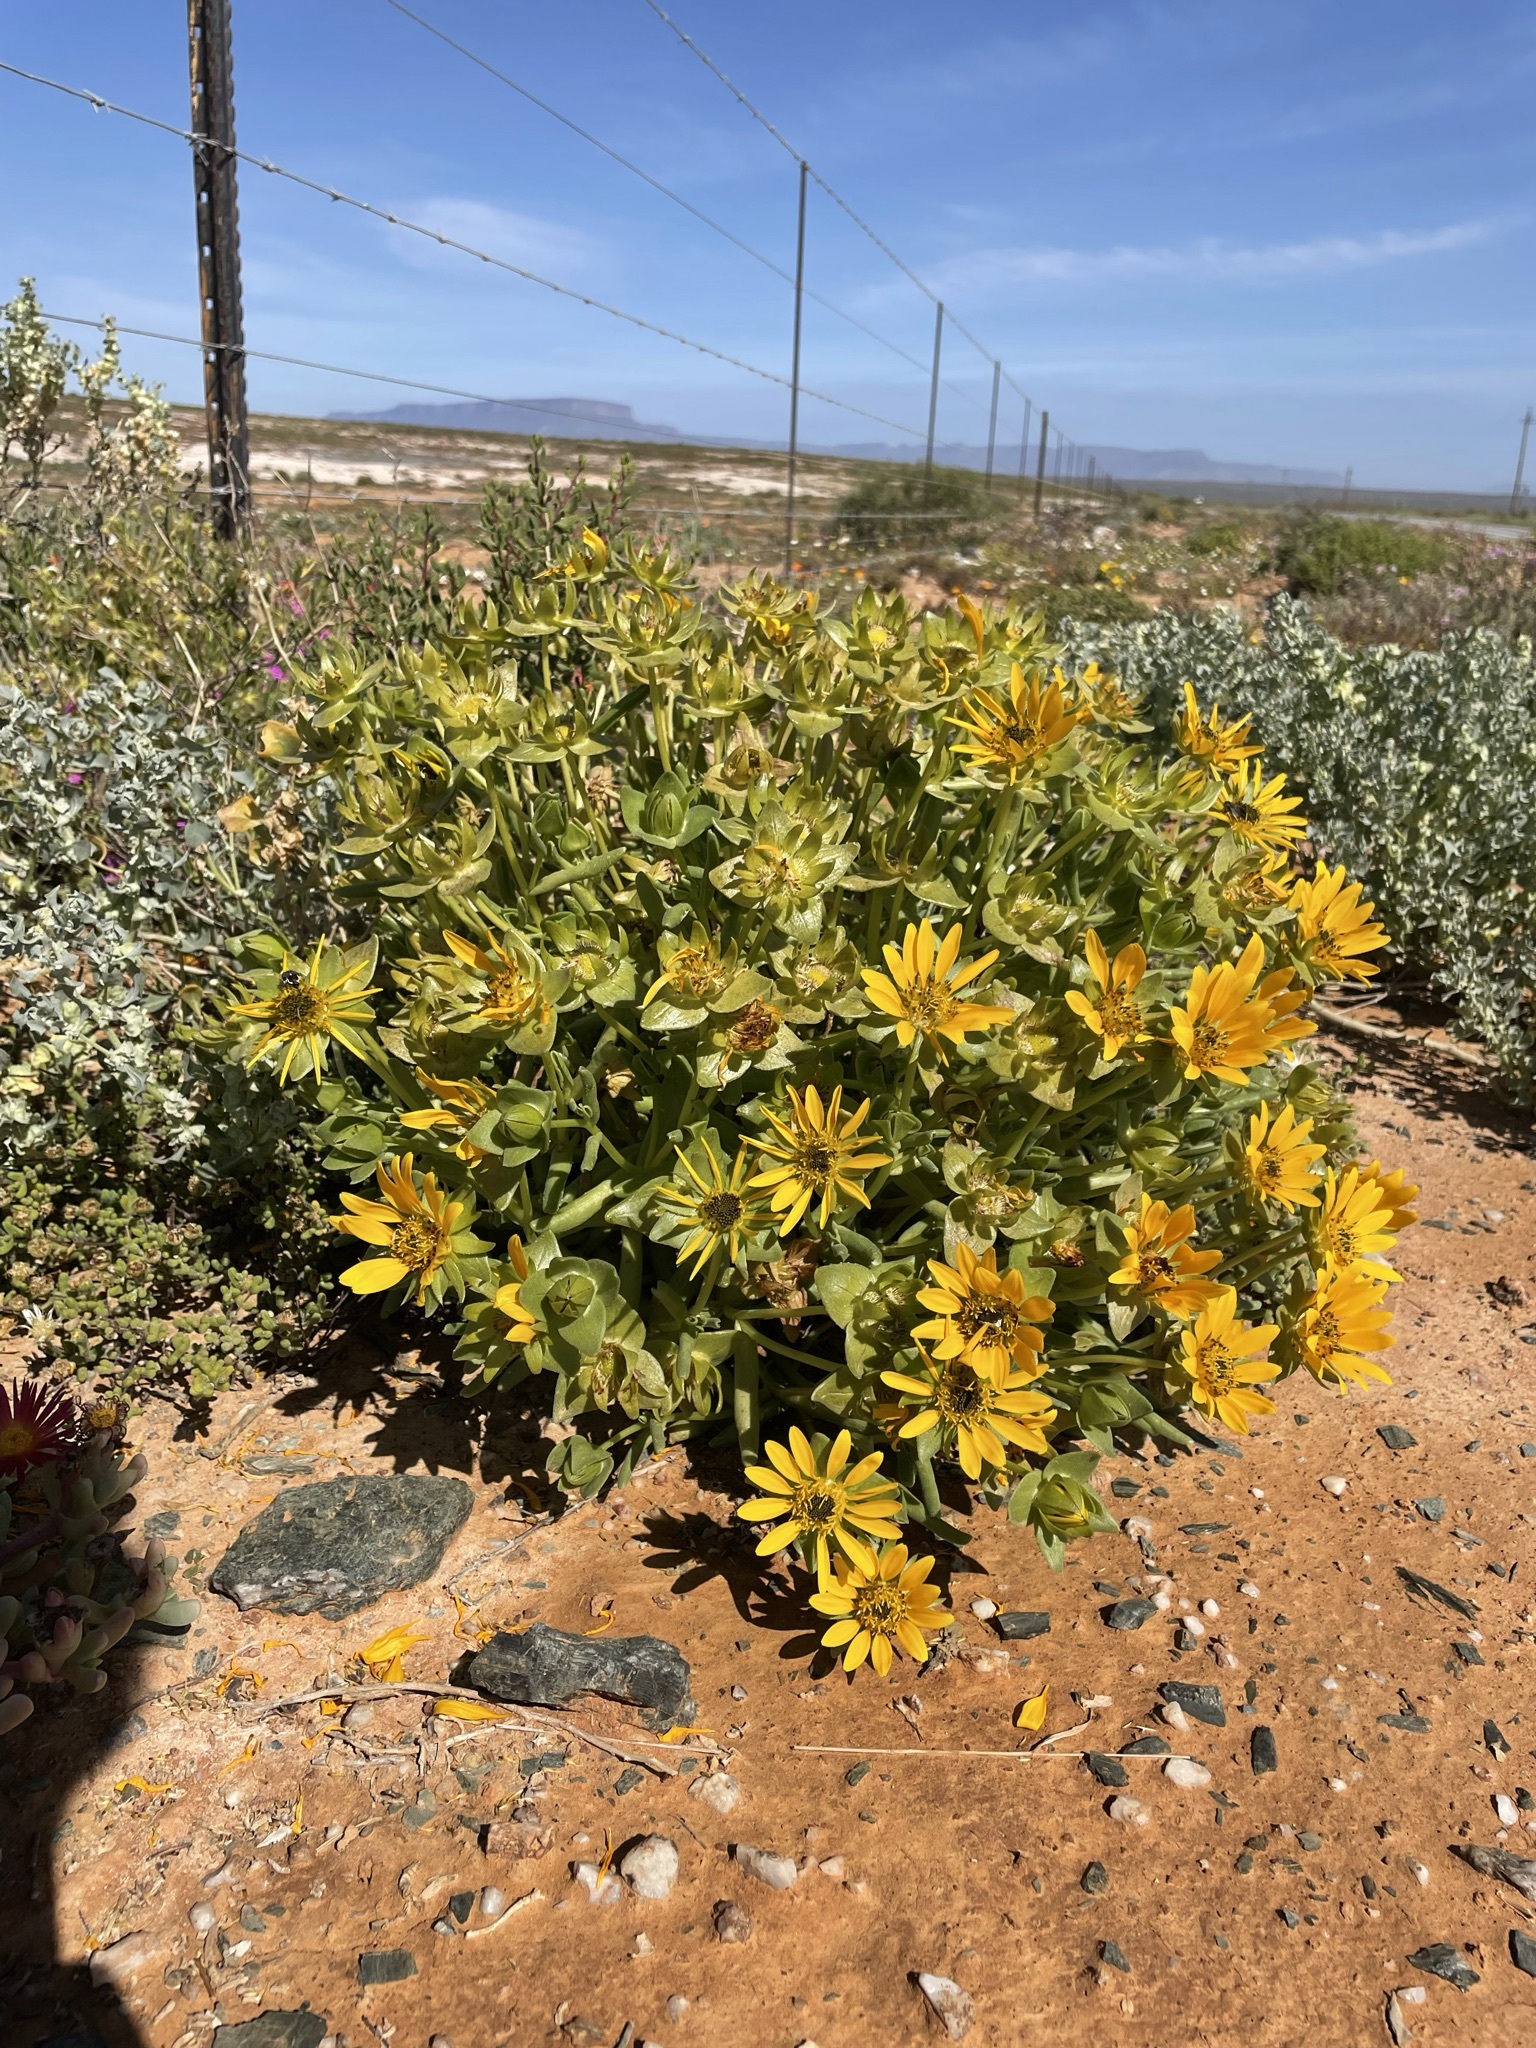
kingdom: Plantae
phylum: Tracheophyta
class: Magnoliopsida
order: Asterales
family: Asteraceae
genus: Didelta
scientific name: Didelta carnosa
